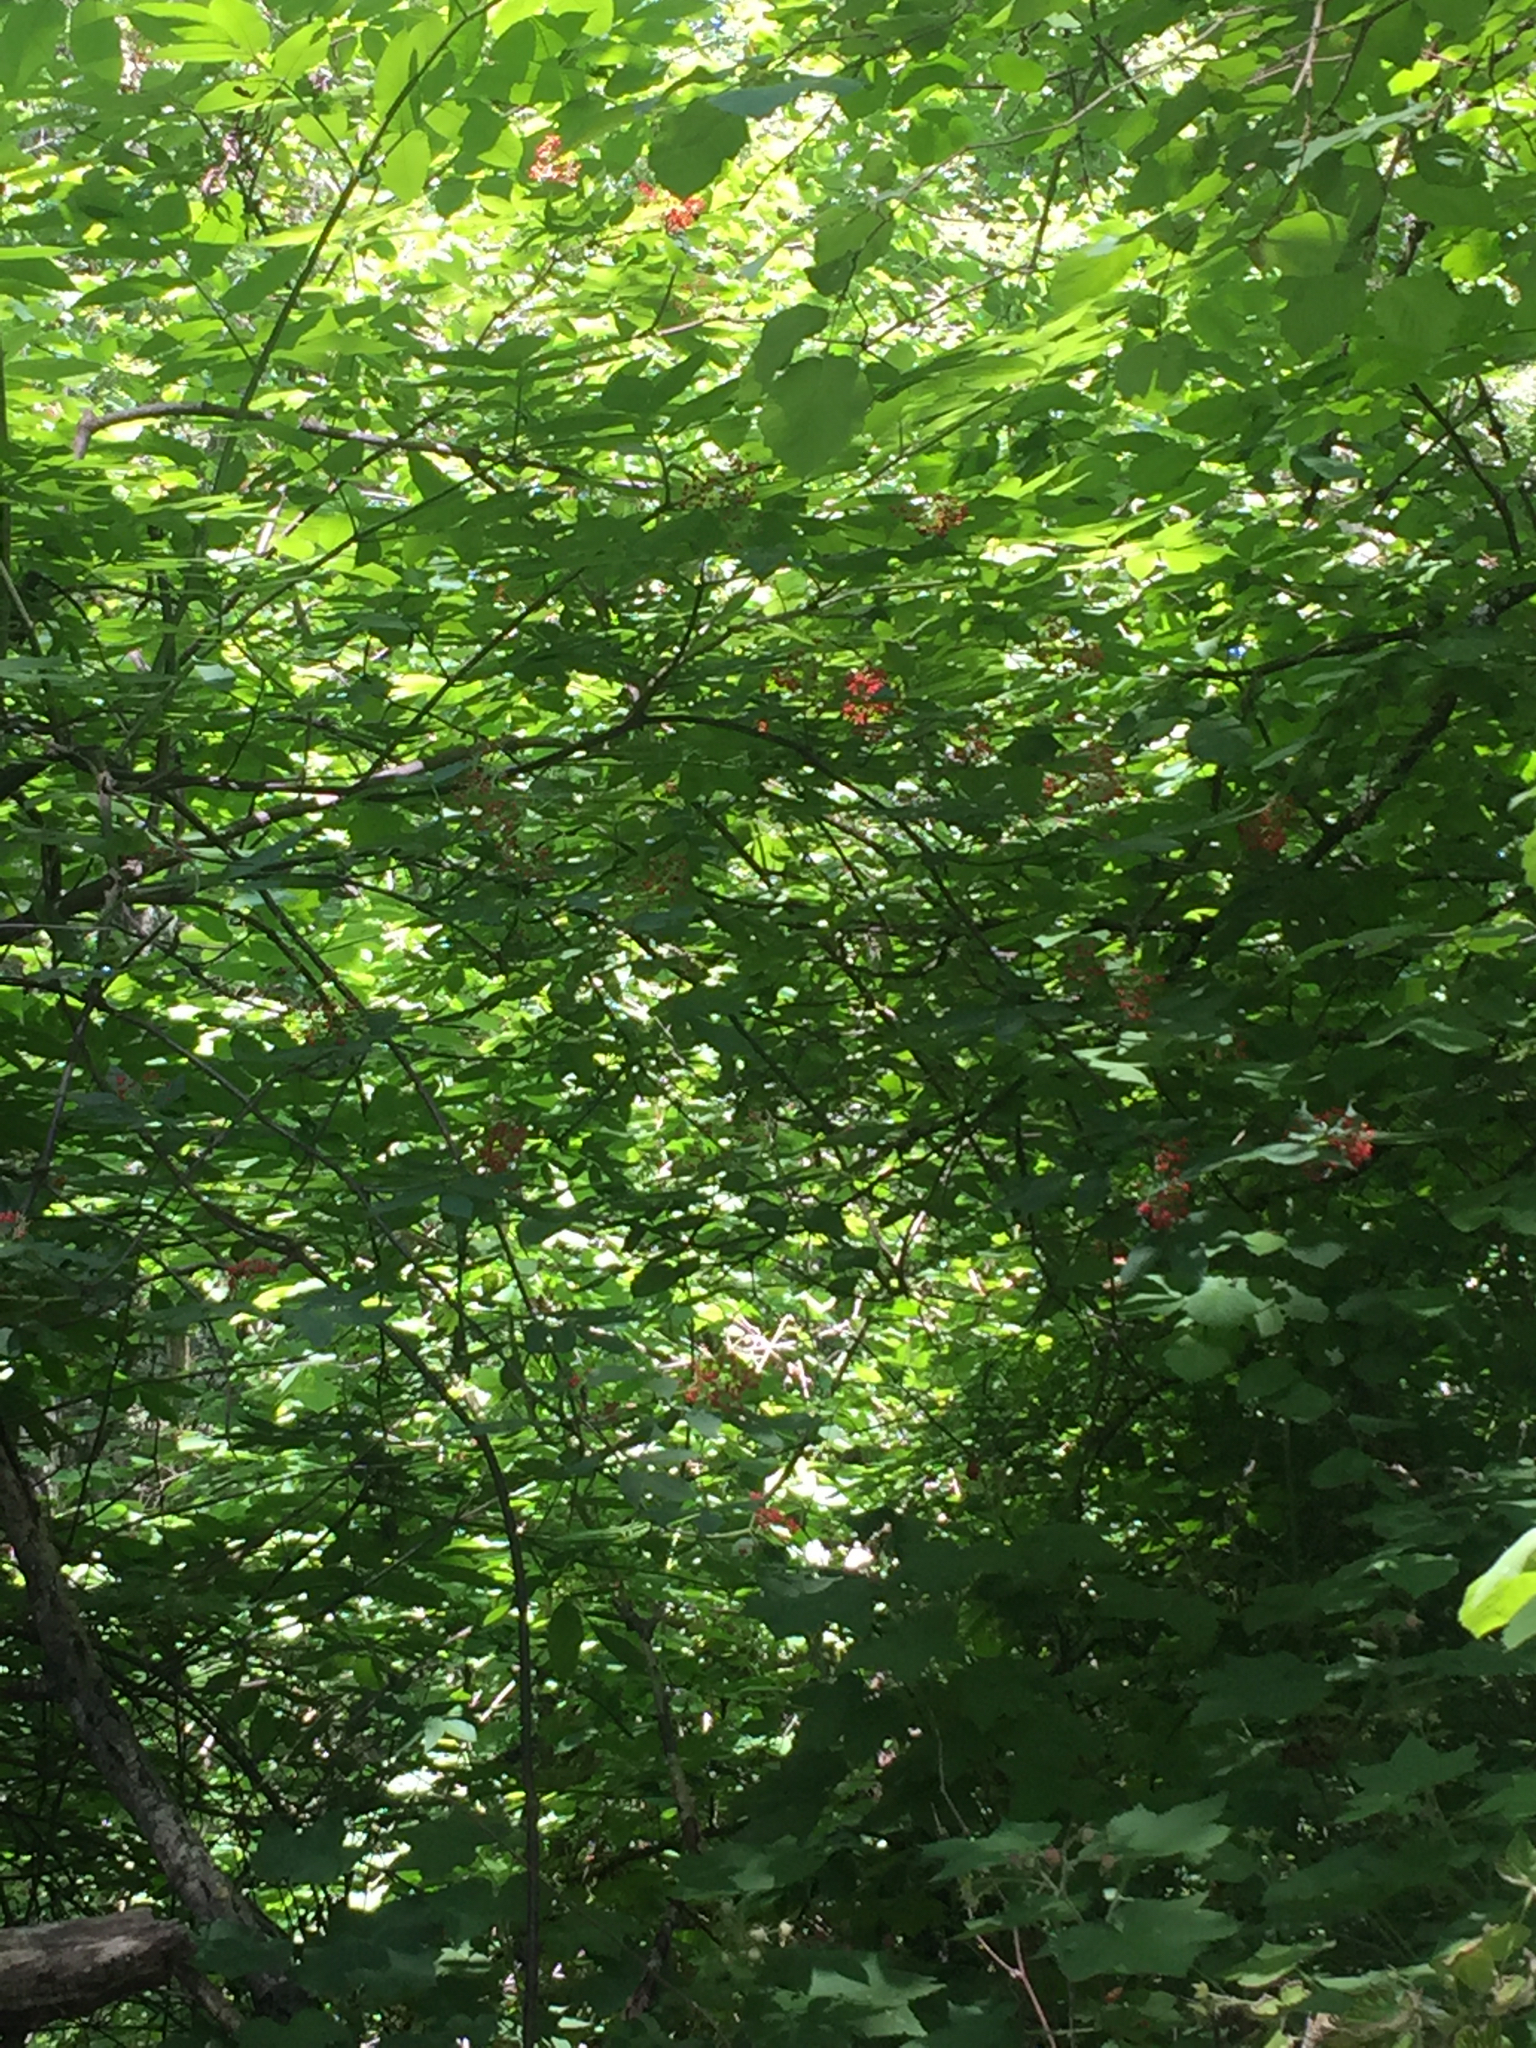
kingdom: Plantae
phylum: Tracheophyta
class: Magnoliopsida
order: Dipsacales
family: Viburnaceae
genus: Sambucus
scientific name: Sambucus racemosa
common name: Red-berried elder
